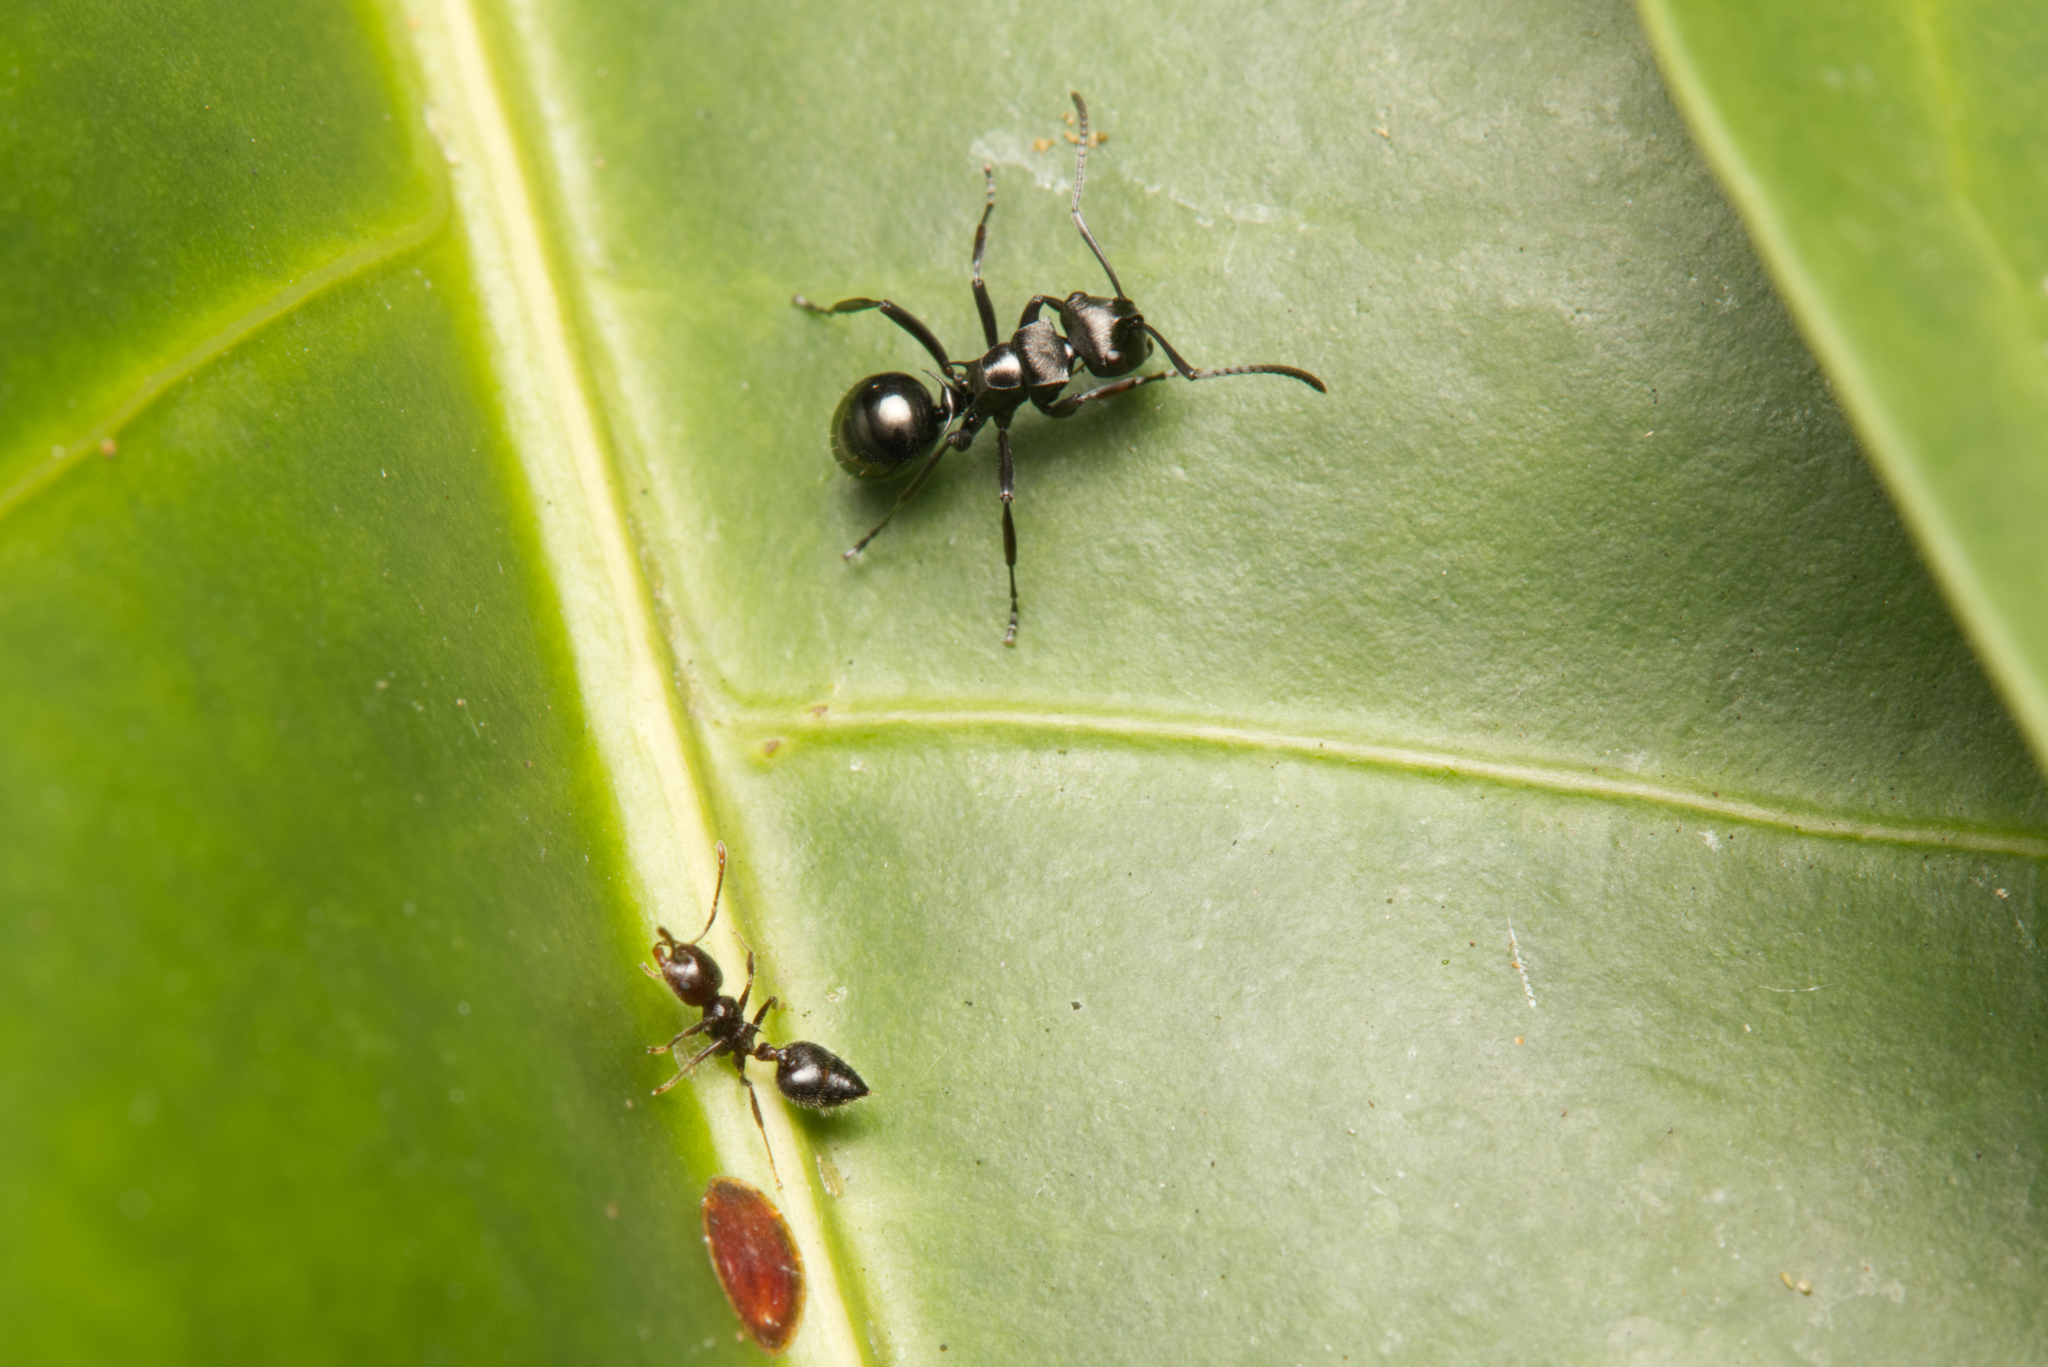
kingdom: Animalia
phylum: Arthropoda
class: Insecta
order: Hymenoptera
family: Formicidae
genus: Polyrhachis
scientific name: Polyrhachis clio
